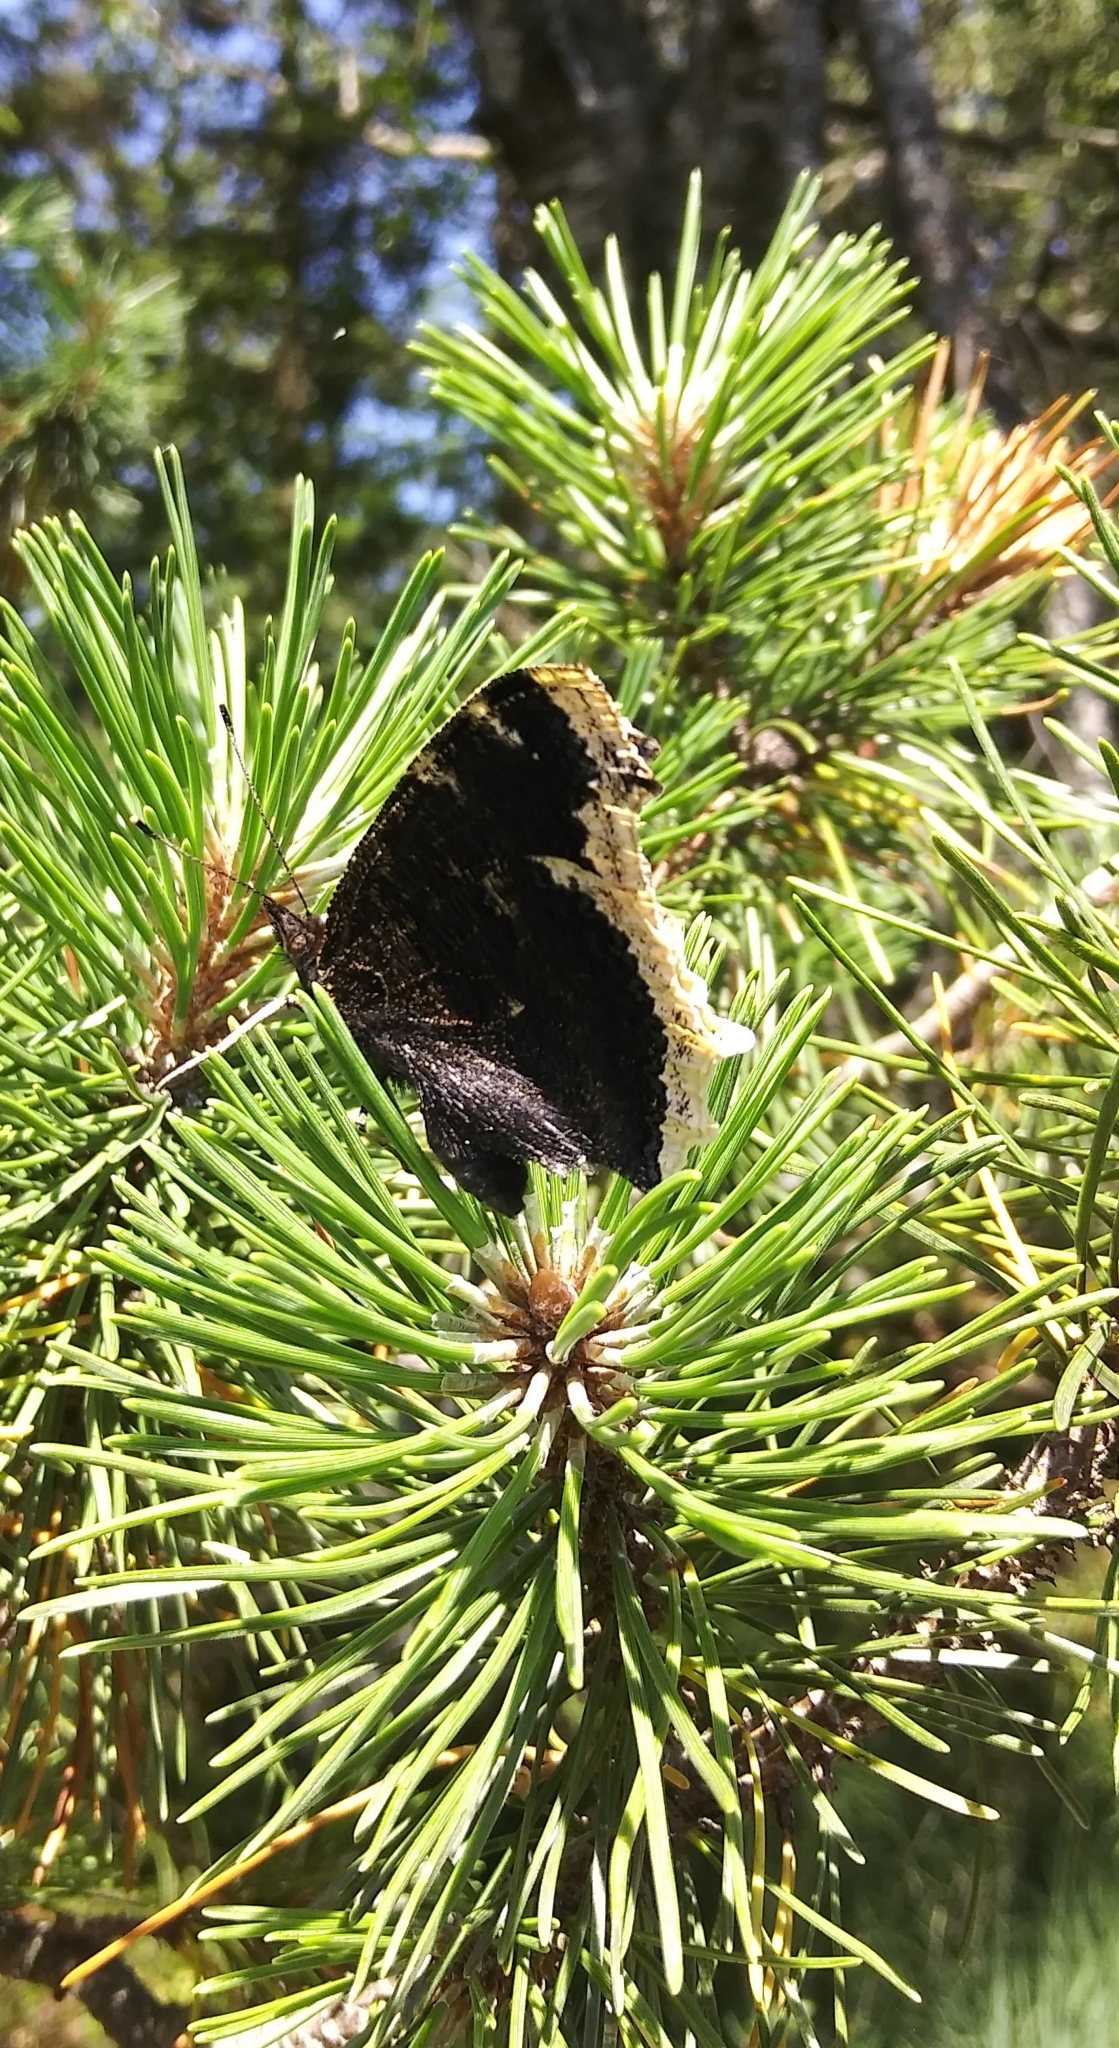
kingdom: Animalia
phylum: Arthropoda
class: Insecta
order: Lepidoptera
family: Nymphalidae
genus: Nymphalis
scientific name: Nymphalis antiopa
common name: Camberwell beauty
